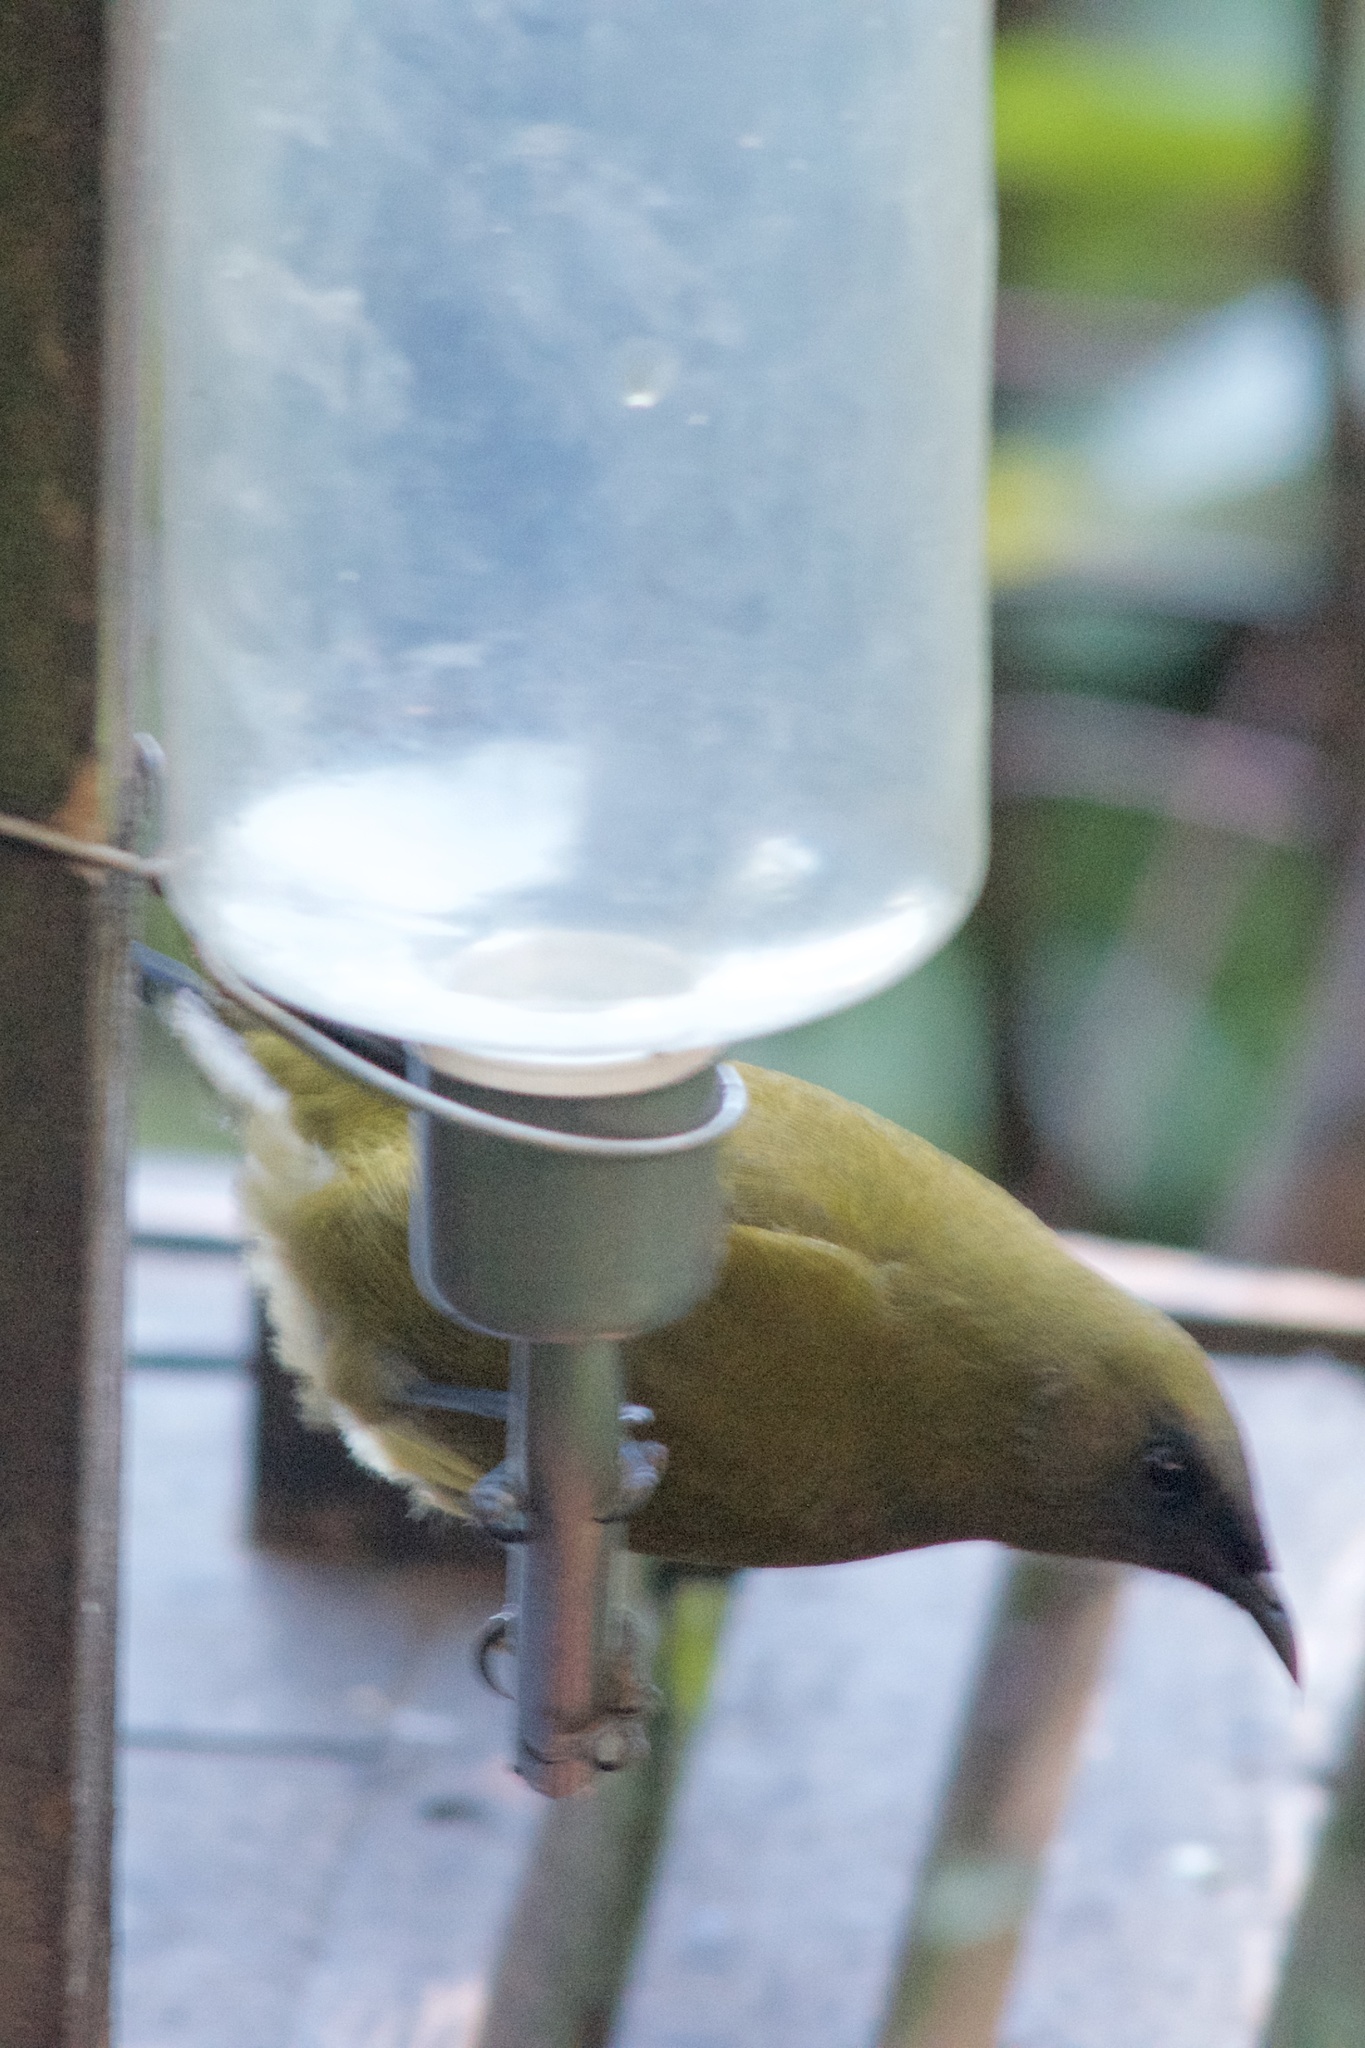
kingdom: Animalia
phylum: Chordata
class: Aves
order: Passeriformes
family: Meliphagidae
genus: Anthornis
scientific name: Anthornis melanura
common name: New zealand bellbird
